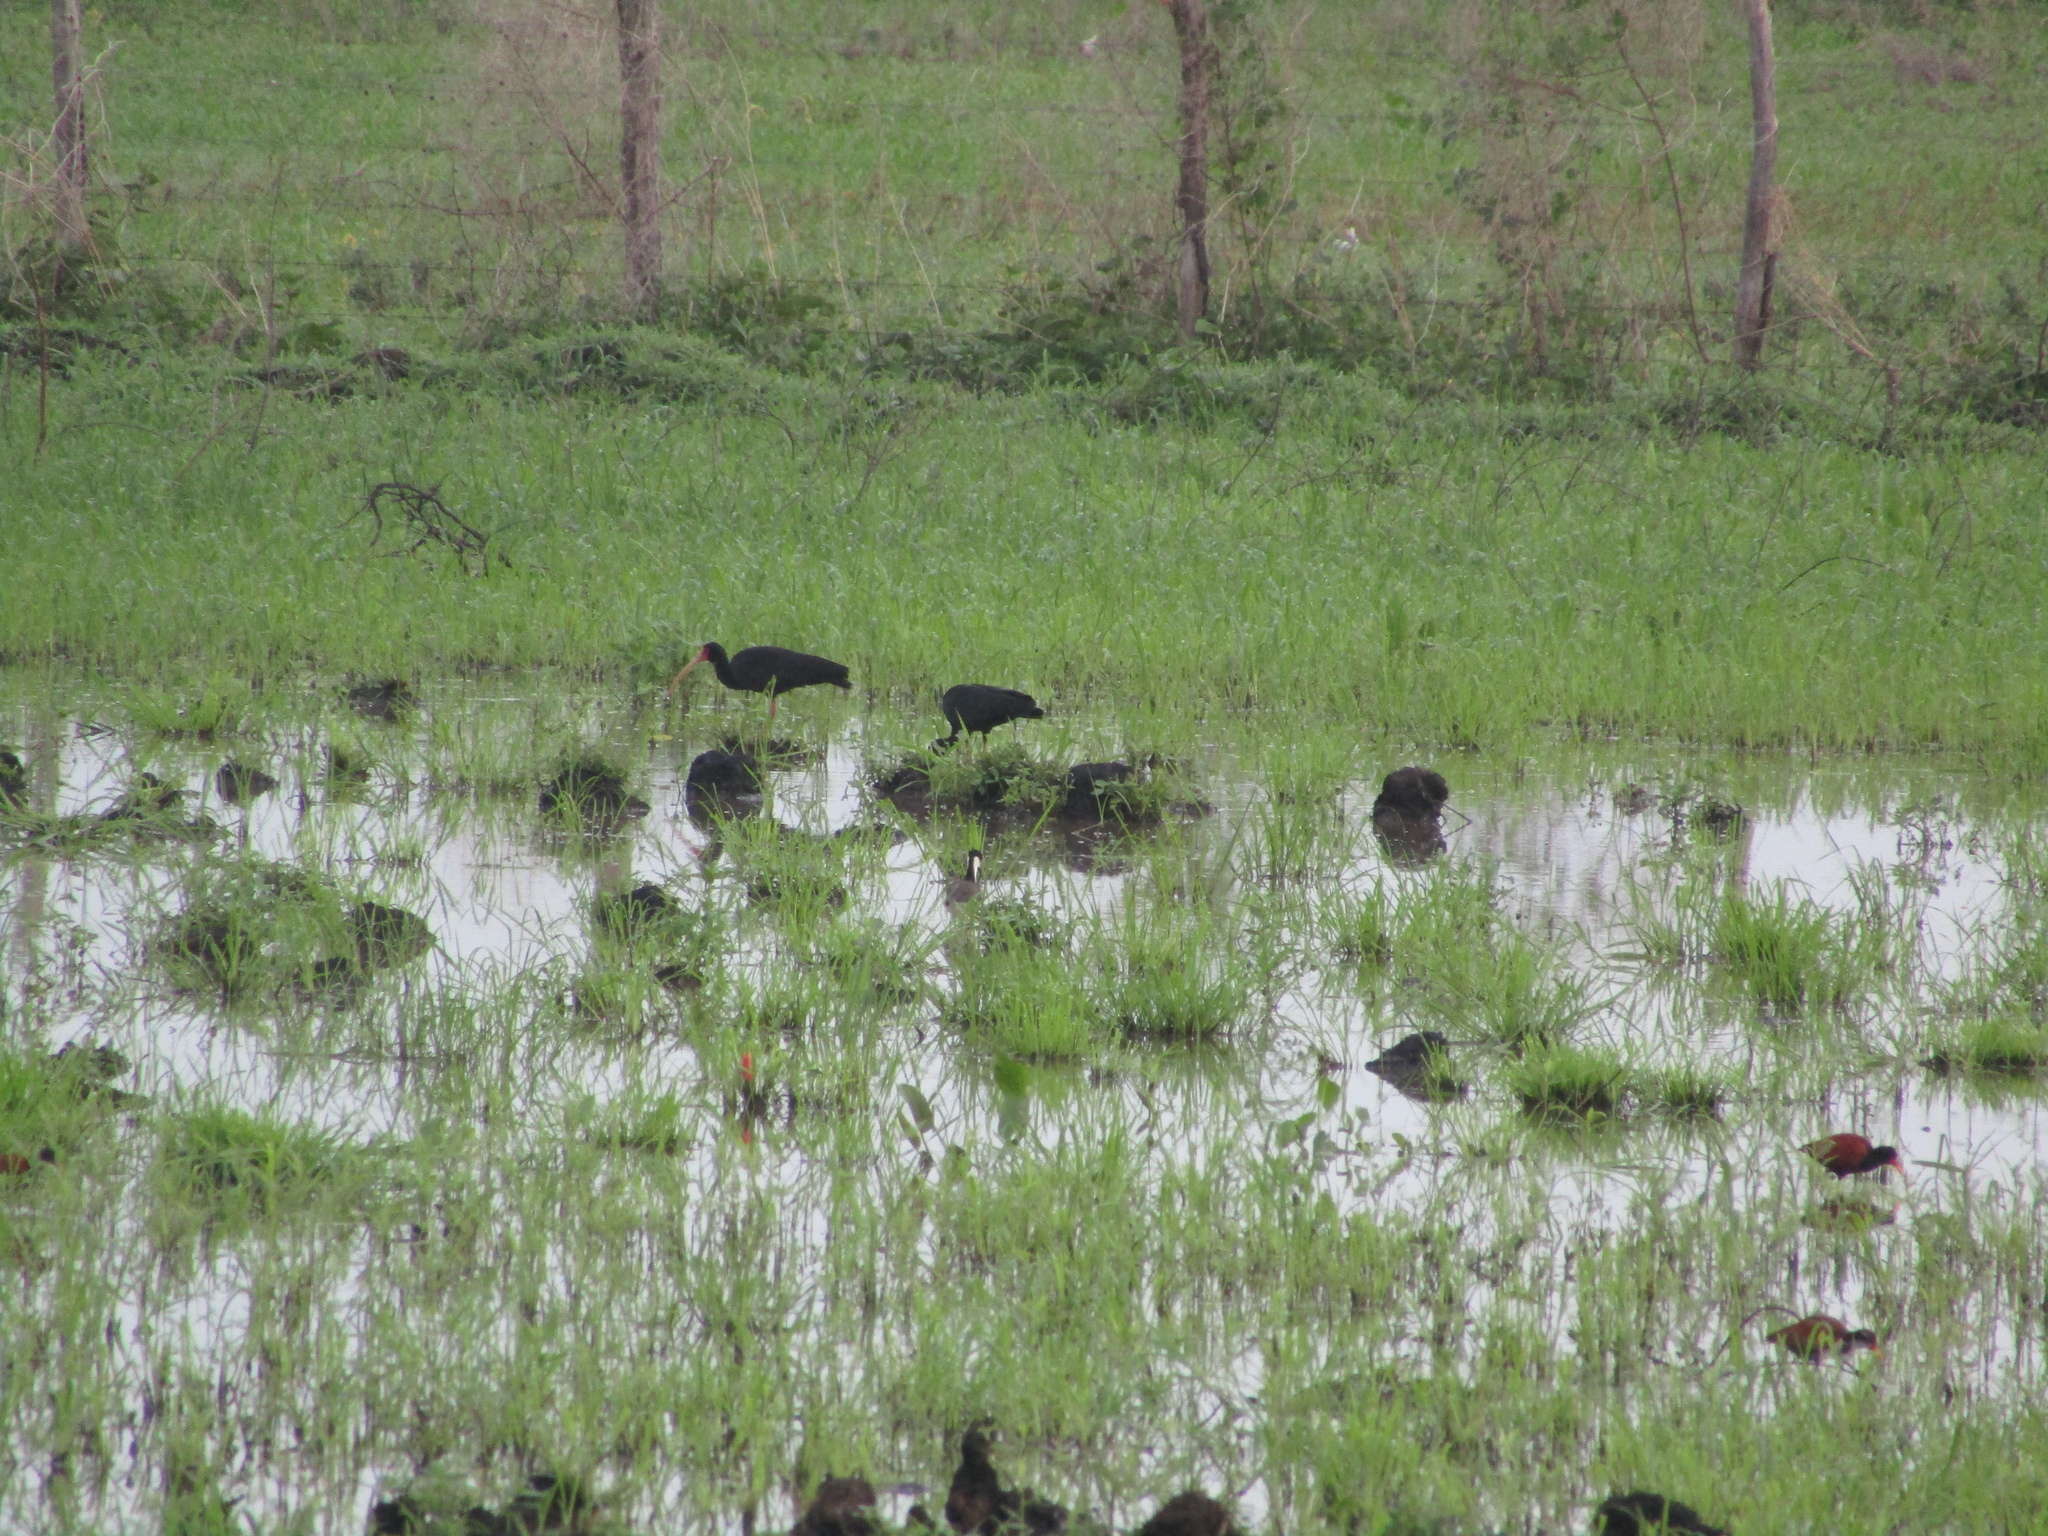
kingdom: Animalia
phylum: Chordata
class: Aves
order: Pelecaniformes
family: Threskiornithidae
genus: Phimosus
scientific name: Phimosus infuscatus
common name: Bare-faced ibis
